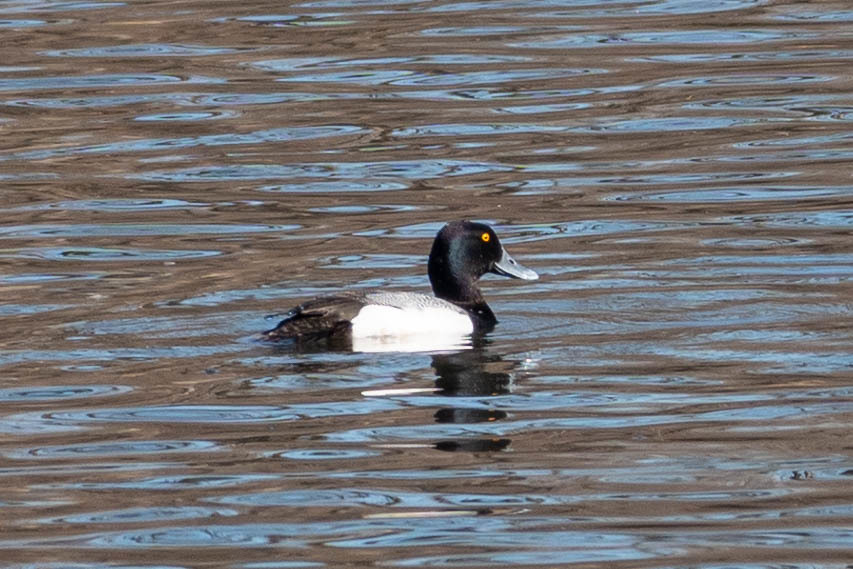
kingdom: Animalia
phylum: Chordata
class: Aves
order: Anseriformes
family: Anatidae
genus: Aythya
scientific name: Aythya affinis
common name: Lesser scaup
